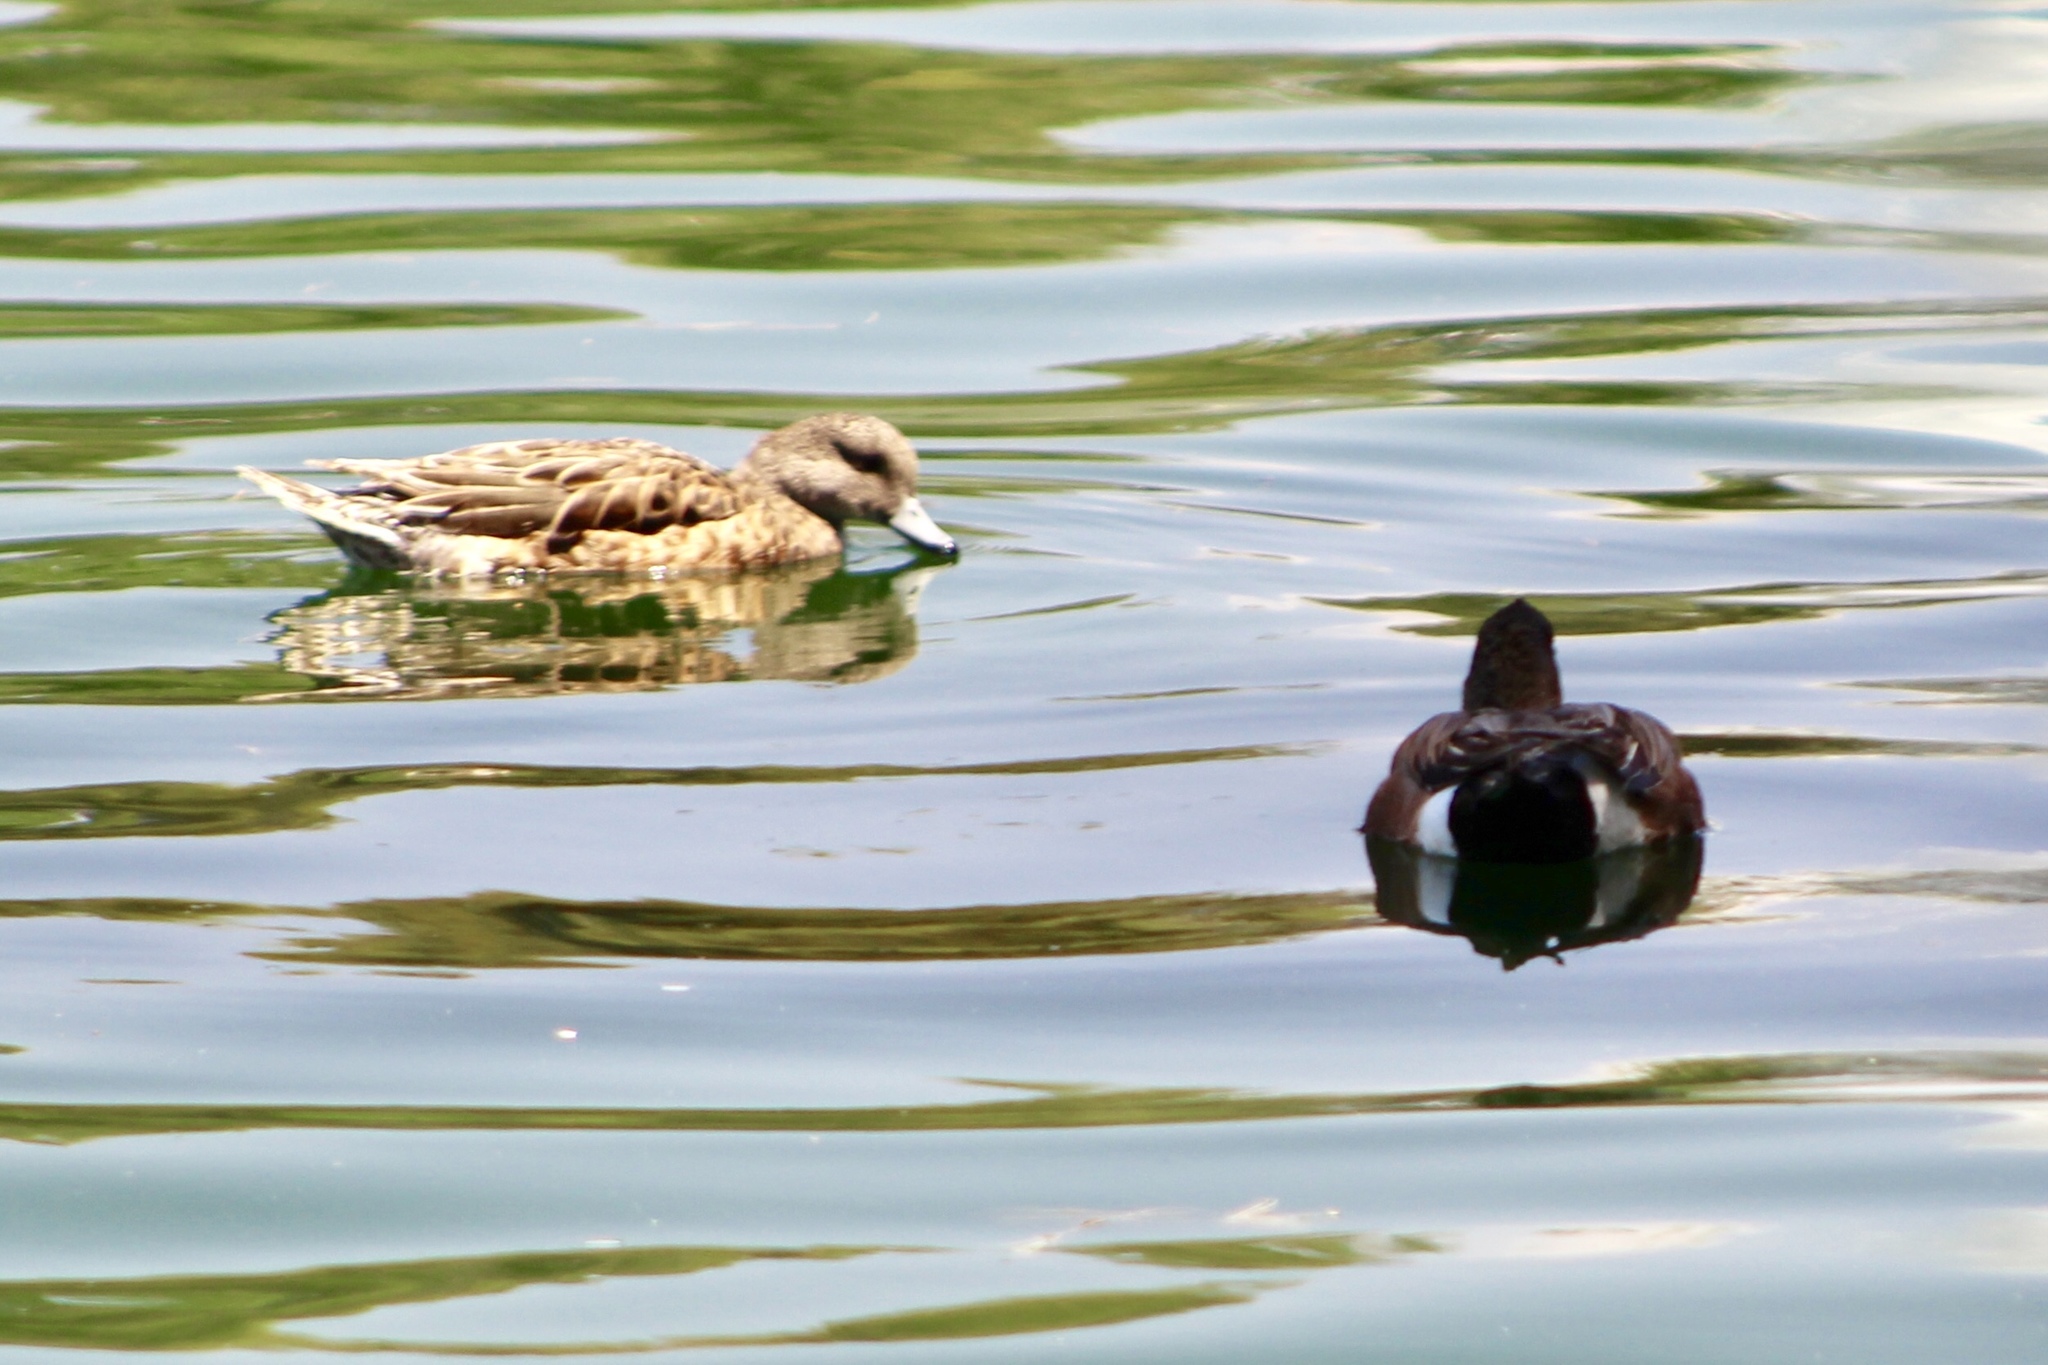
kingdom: Animalia
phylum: Chordata
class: Aves
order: Anseriformes
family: Anatidae
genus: Mareca
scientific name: Mareca americana
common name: American wigeon
